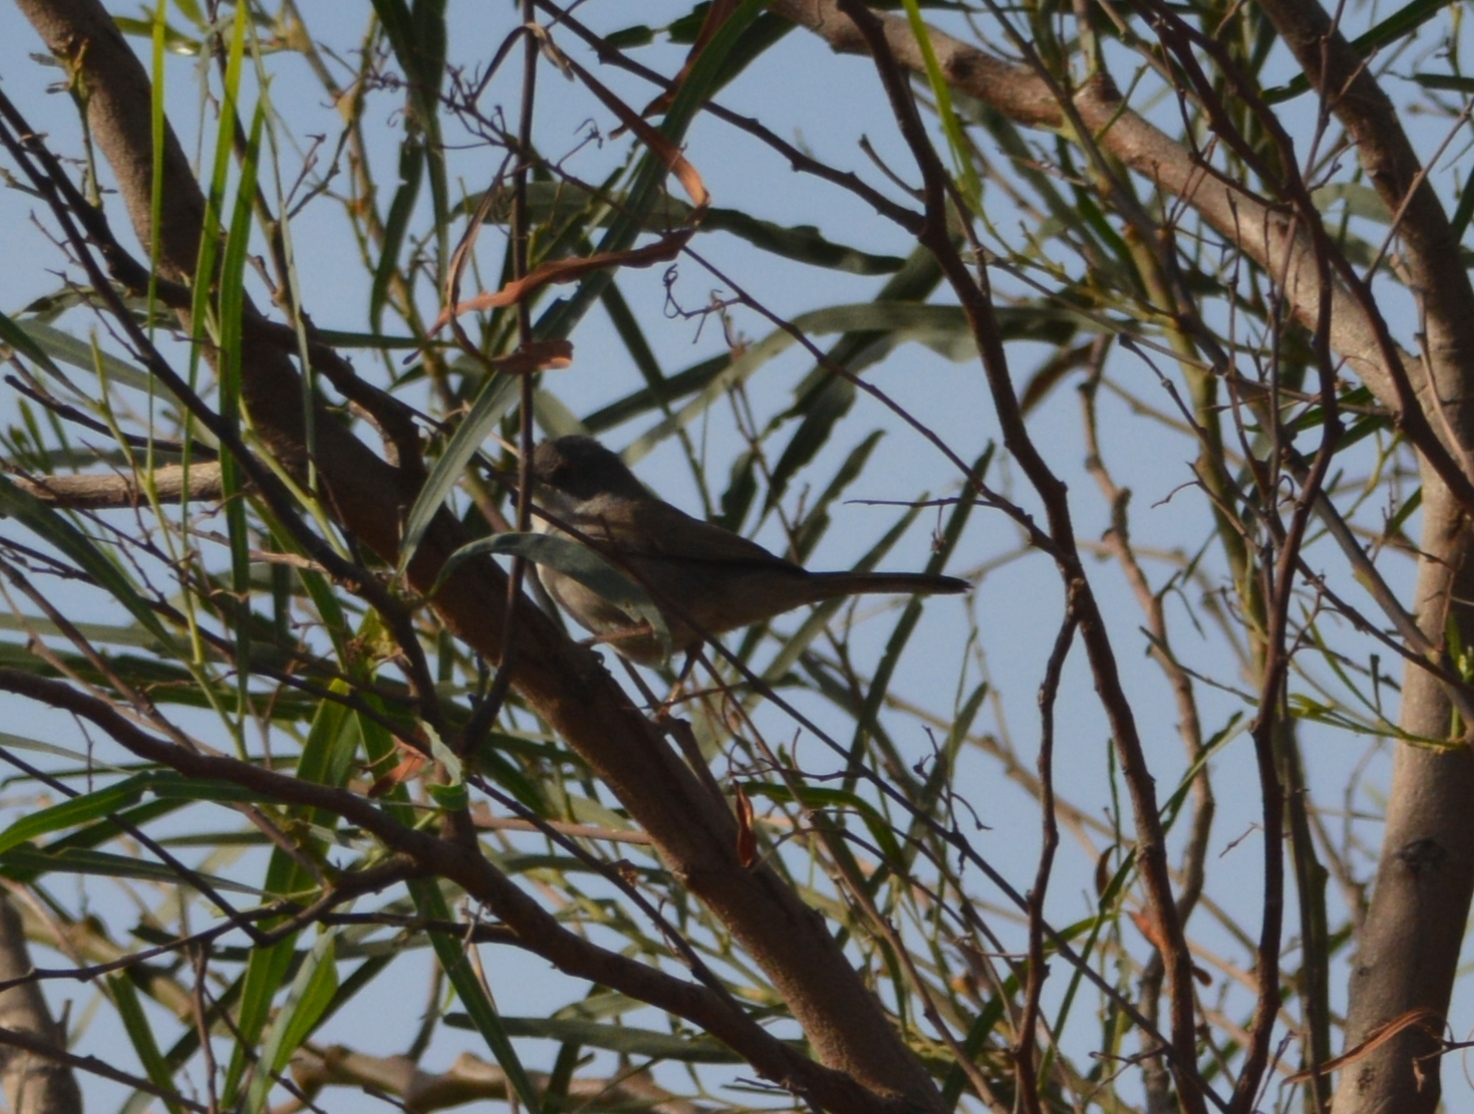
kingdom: Animalia
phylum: Chordata
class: Aves
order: Passeriformes
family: Sylviidae
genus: Curruca
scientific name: Curruca melanocephala
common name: Sardinian warbler
